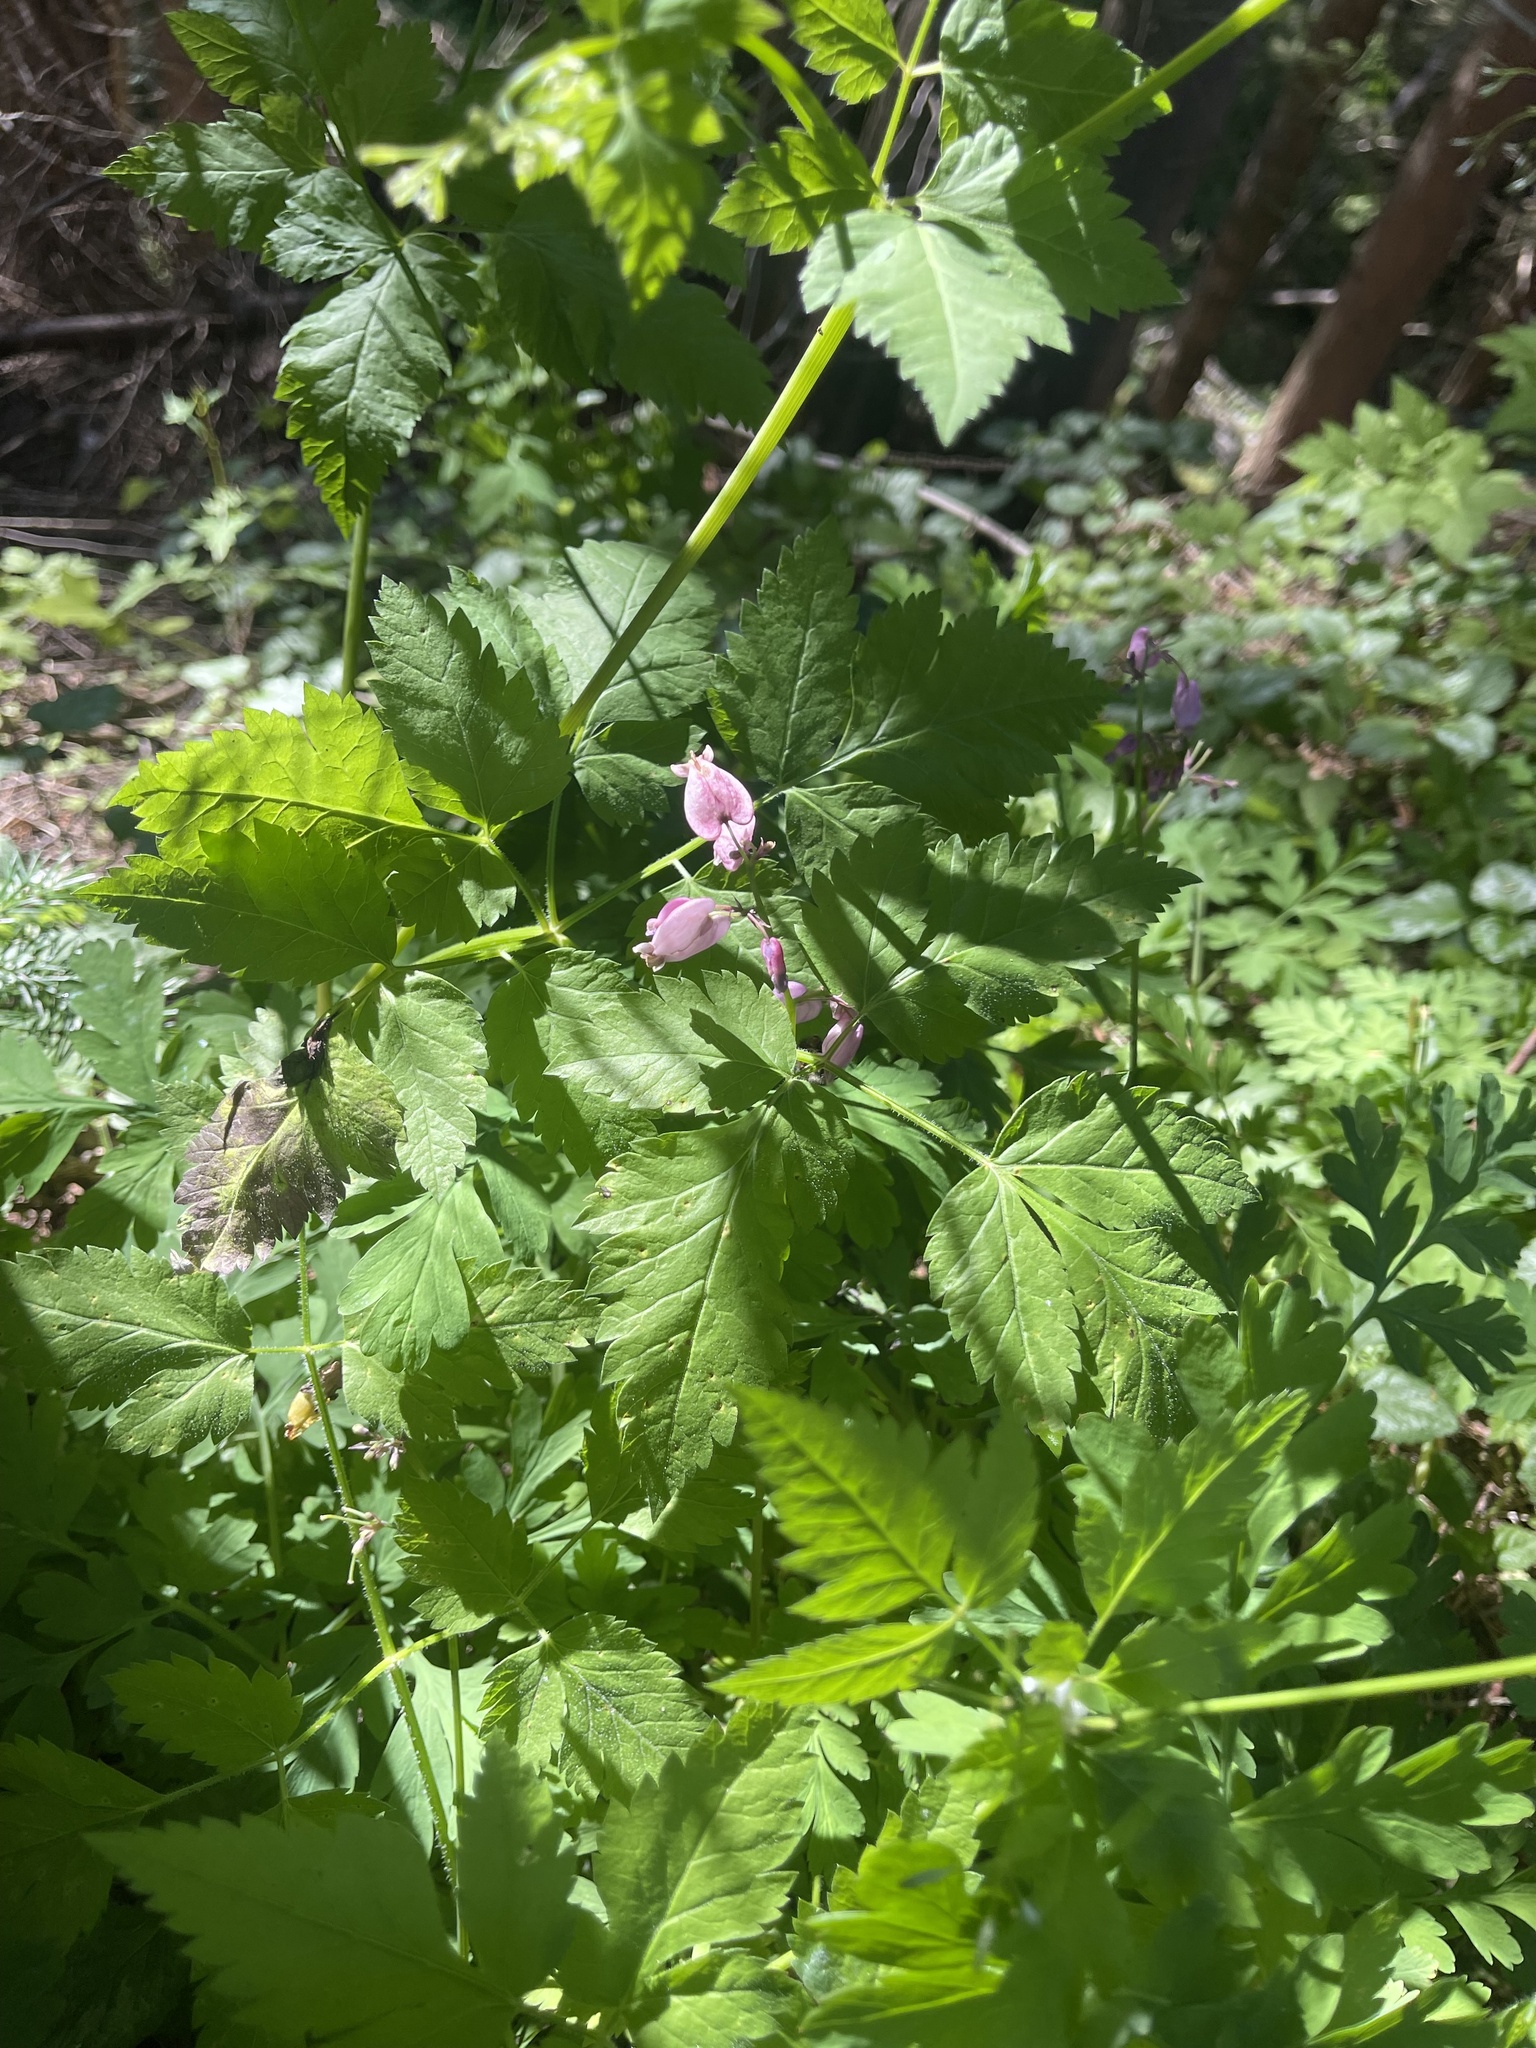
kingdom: Plantae
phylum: Tracheophyta
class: Magnoliopsida
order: Ranunculales
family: Papaveraceae
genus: Dicentra
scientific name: Dicentra formosa
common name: Bleeding-heart
